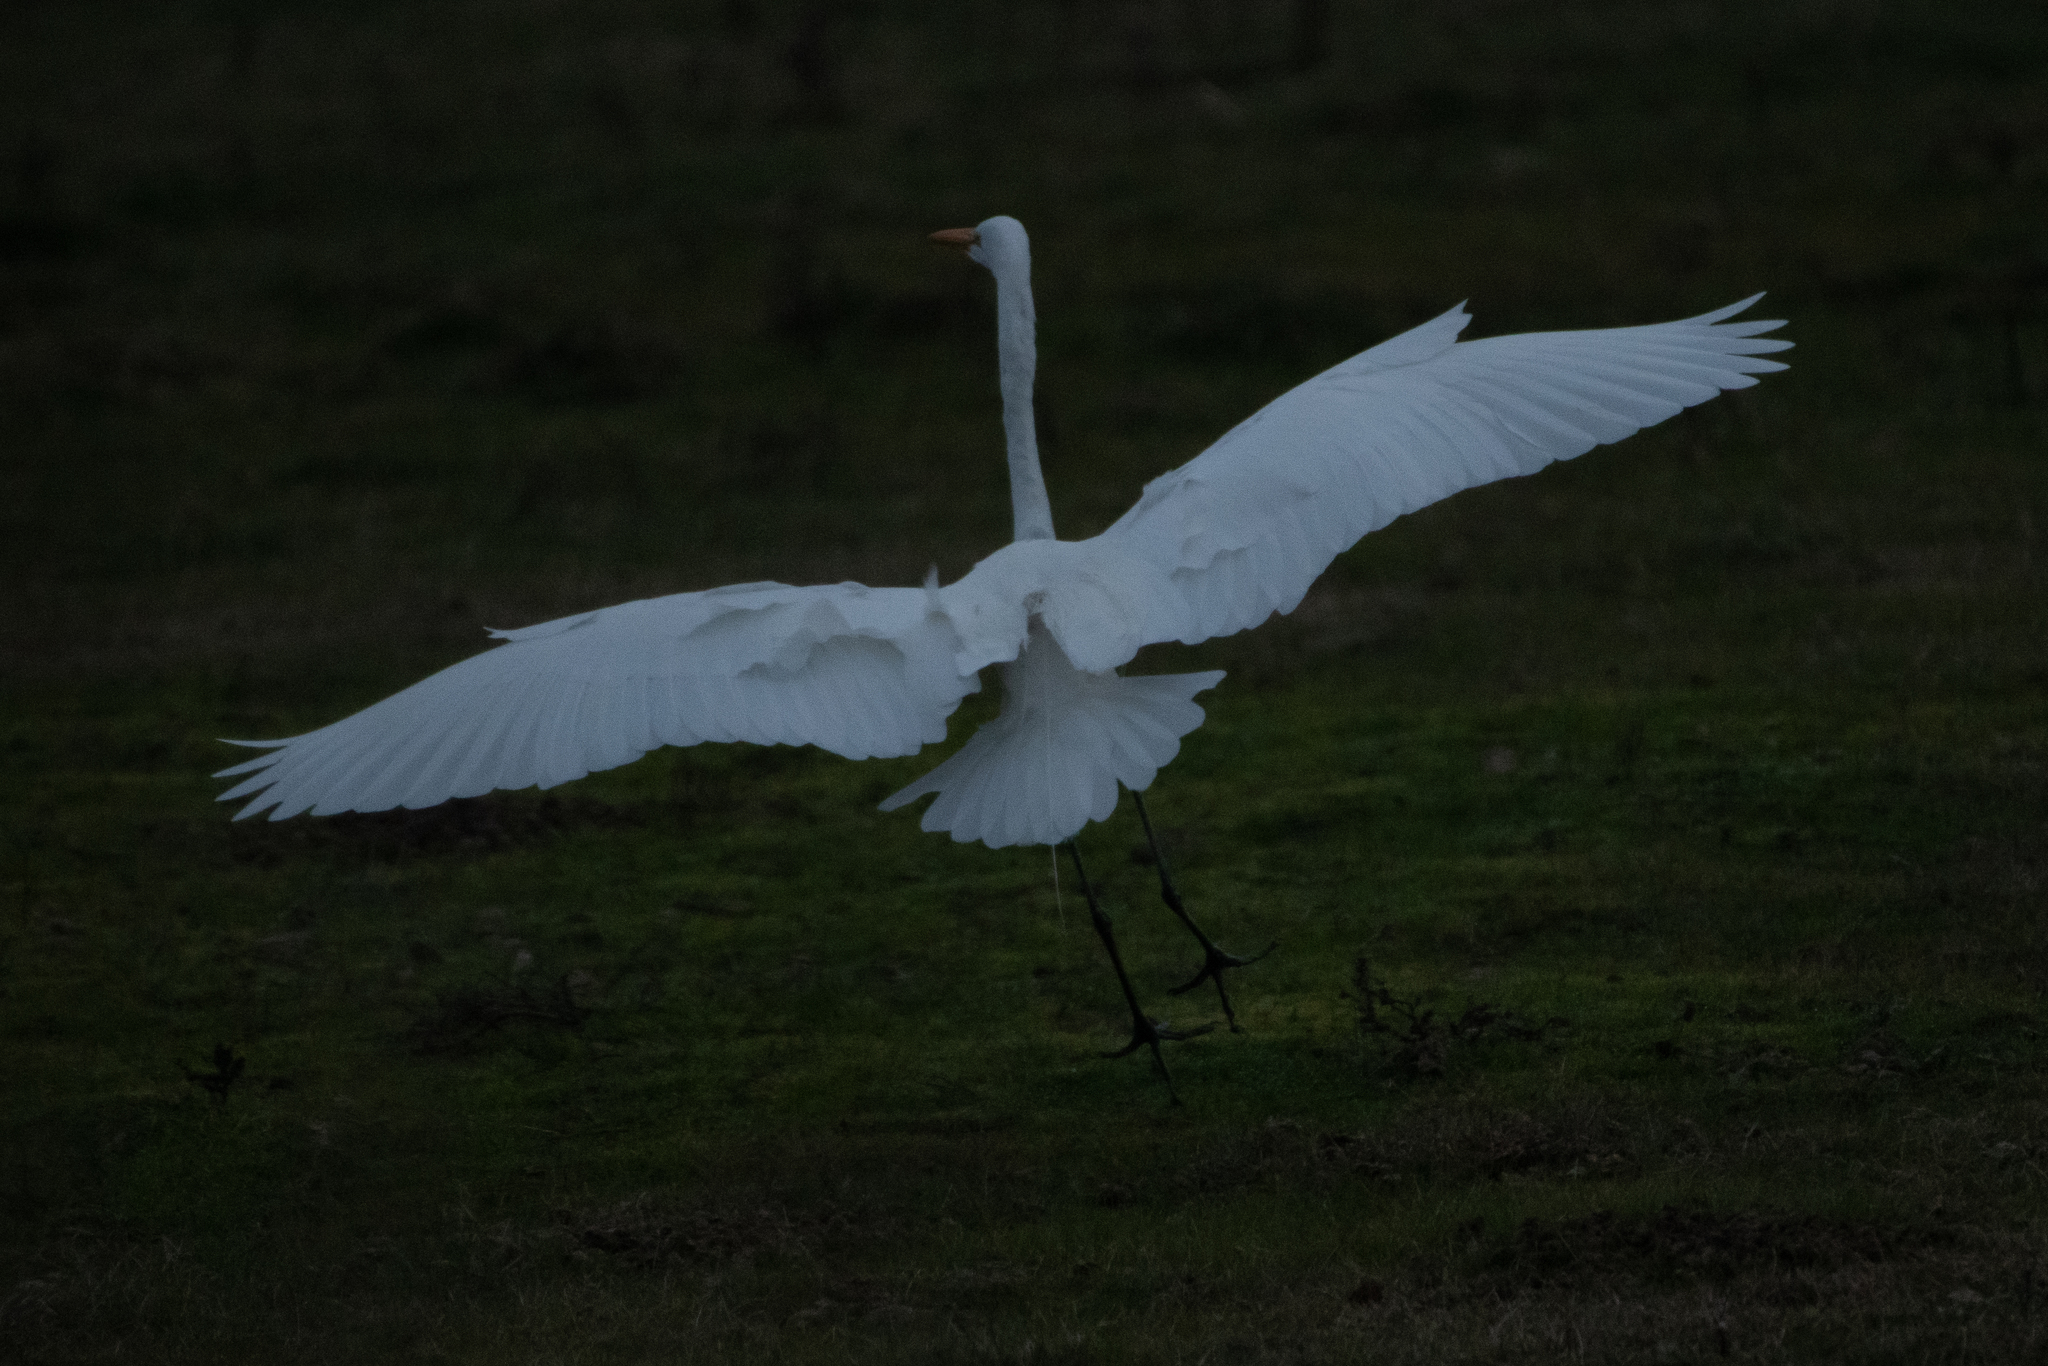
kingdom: Animalia
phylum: Chordata
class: Aves
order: Pelecaniformes
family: Ardeidae
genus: Ardea
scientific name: Ardea alba
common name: Great egret
